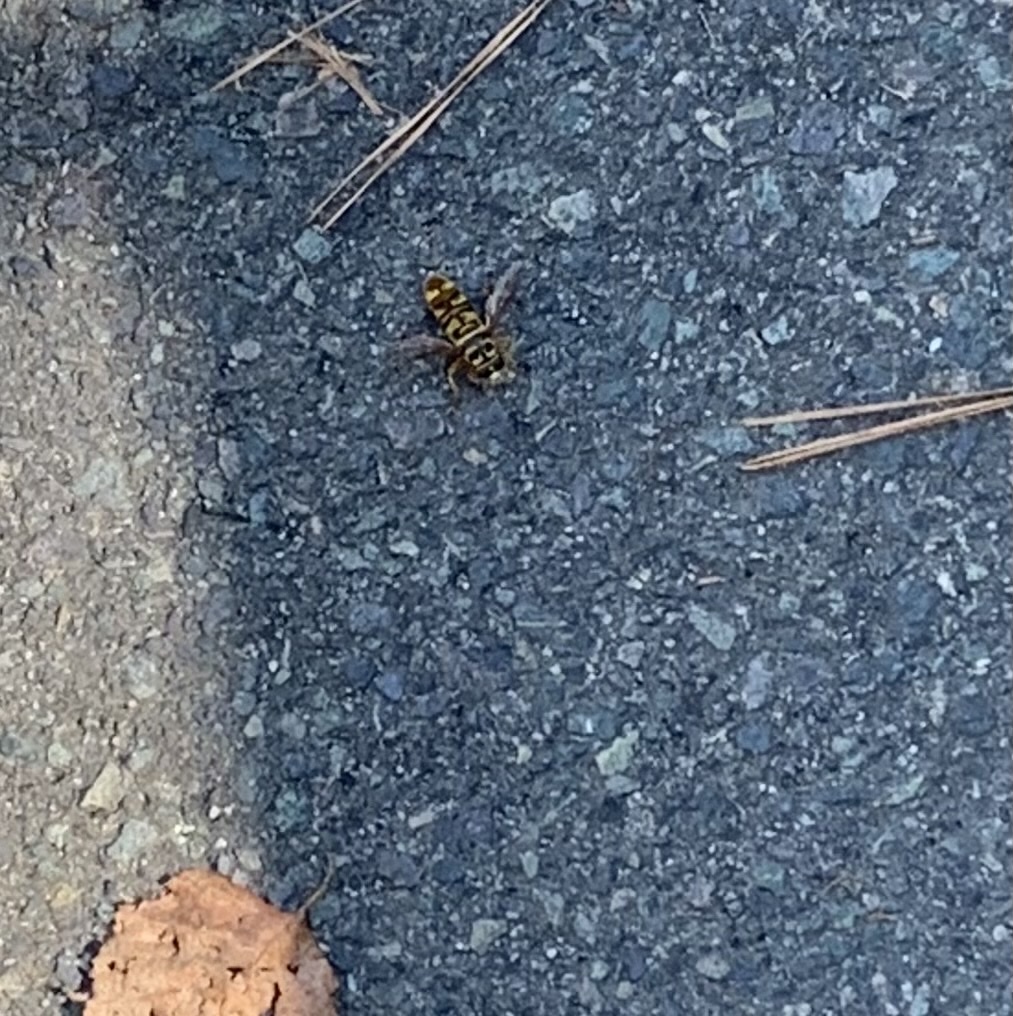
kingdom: Animalia
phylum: Arthropoda
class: Insecta
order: Diptera
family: Syrphidae
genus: Milesia
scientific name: Milesia virginiensis
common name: Virginia giant
